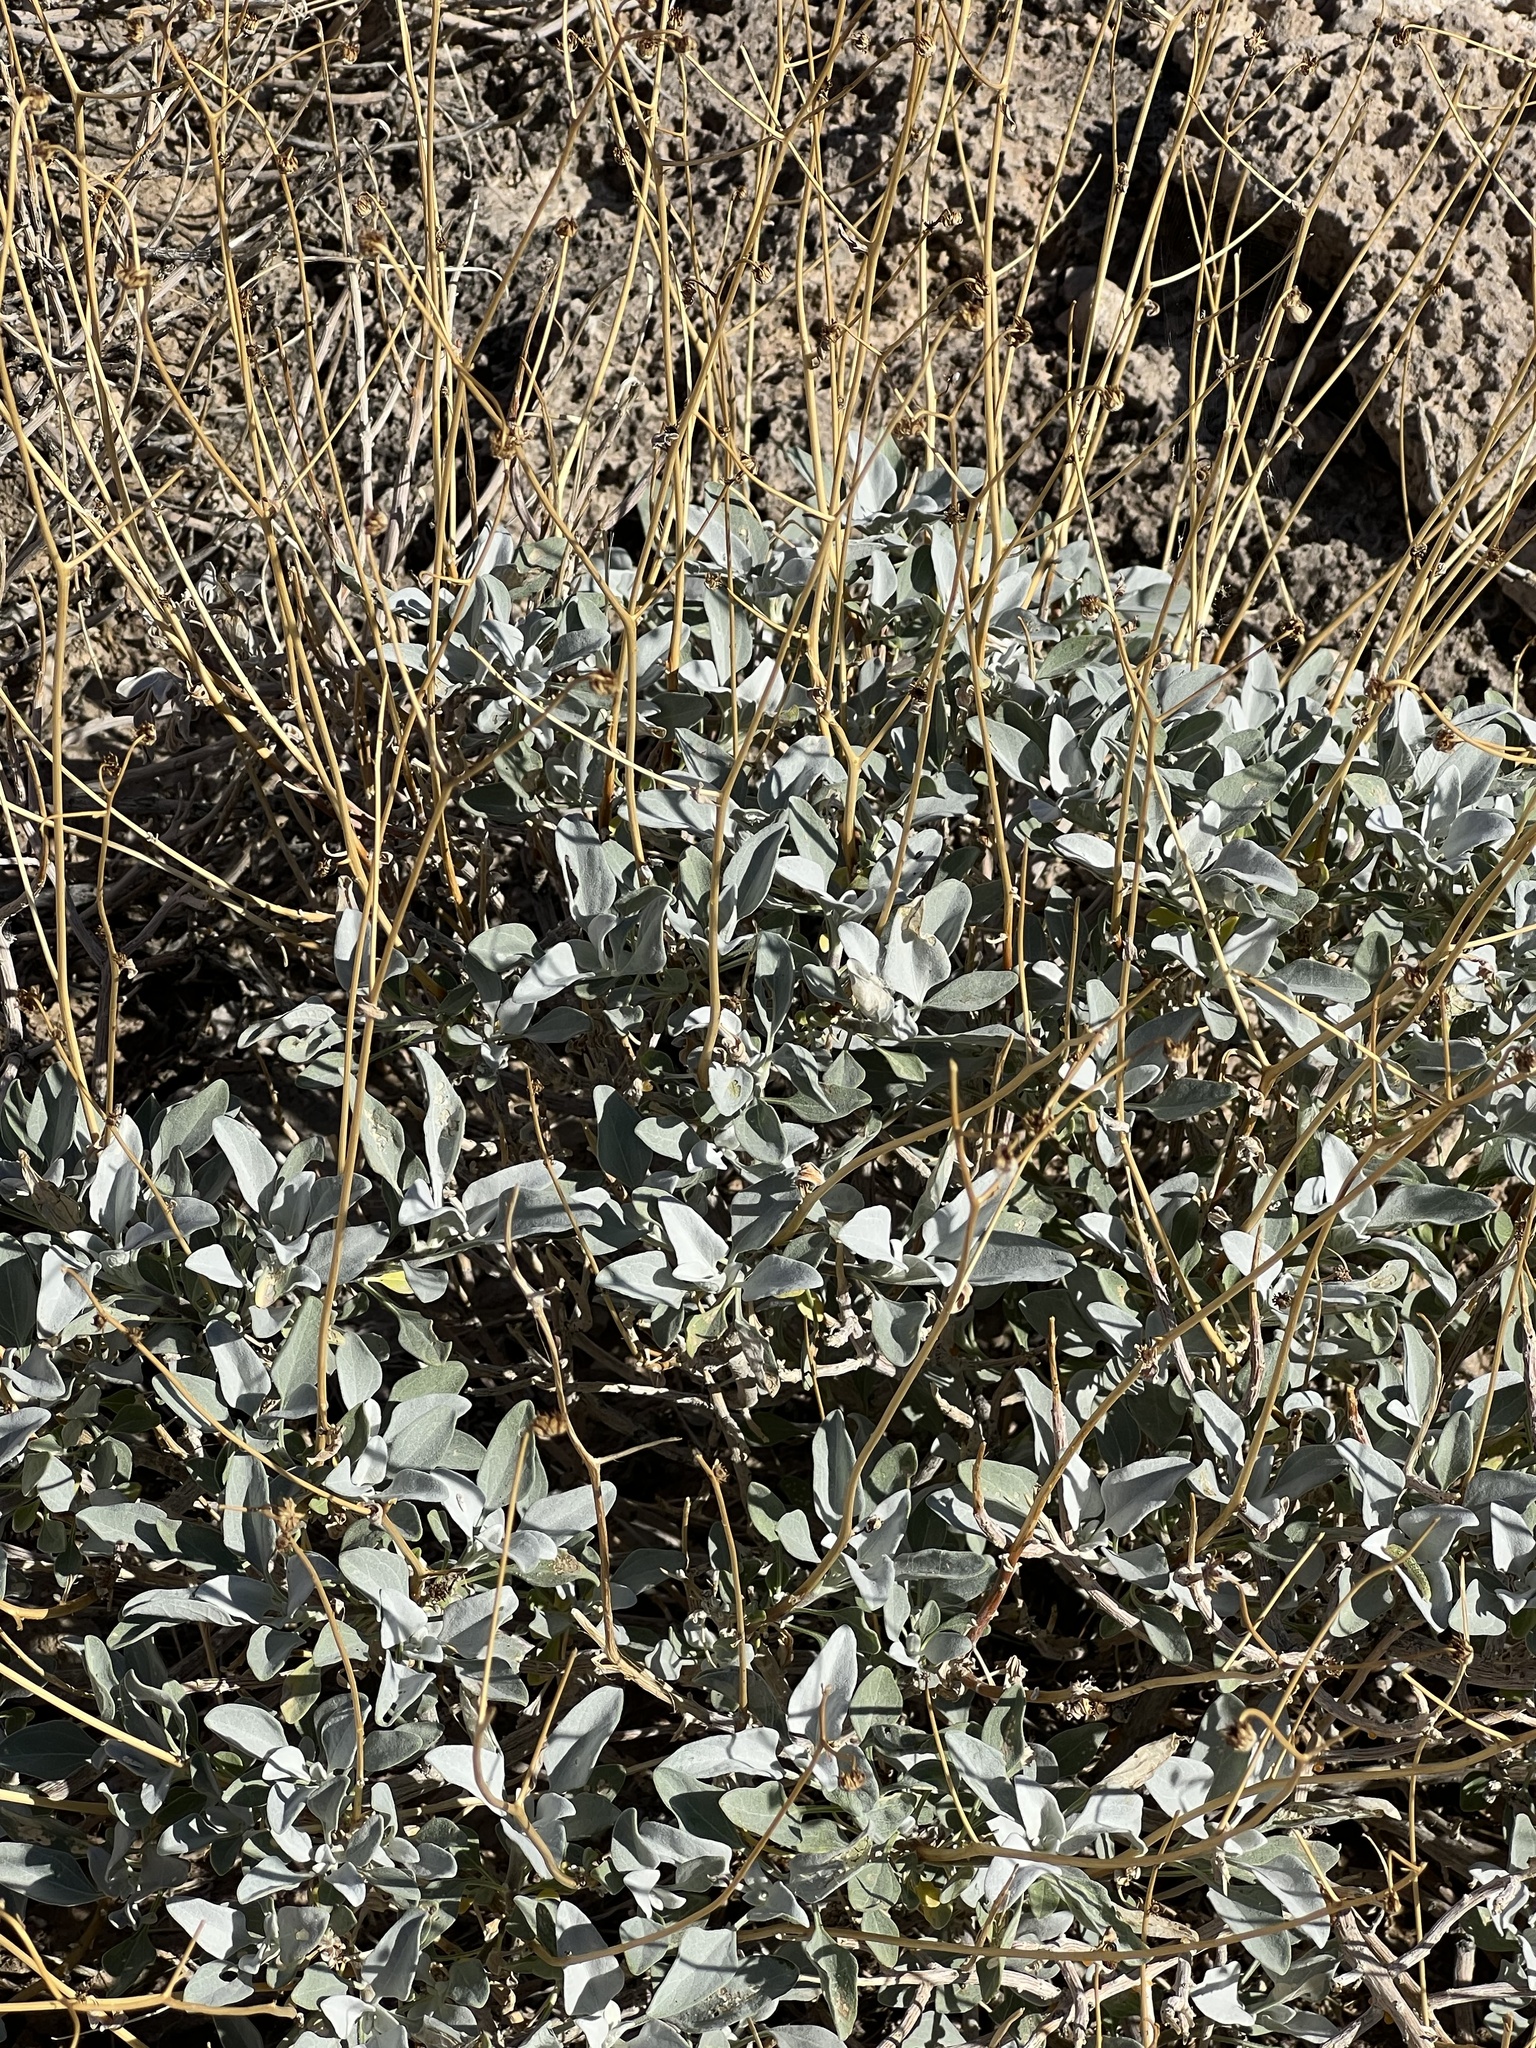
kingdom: Plantae
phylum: Tracheophyta
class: Magnoliopsida
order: Asterales
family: Asteraceae
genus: Encelia
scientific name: Encelia farinosa
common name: Brittlebush
